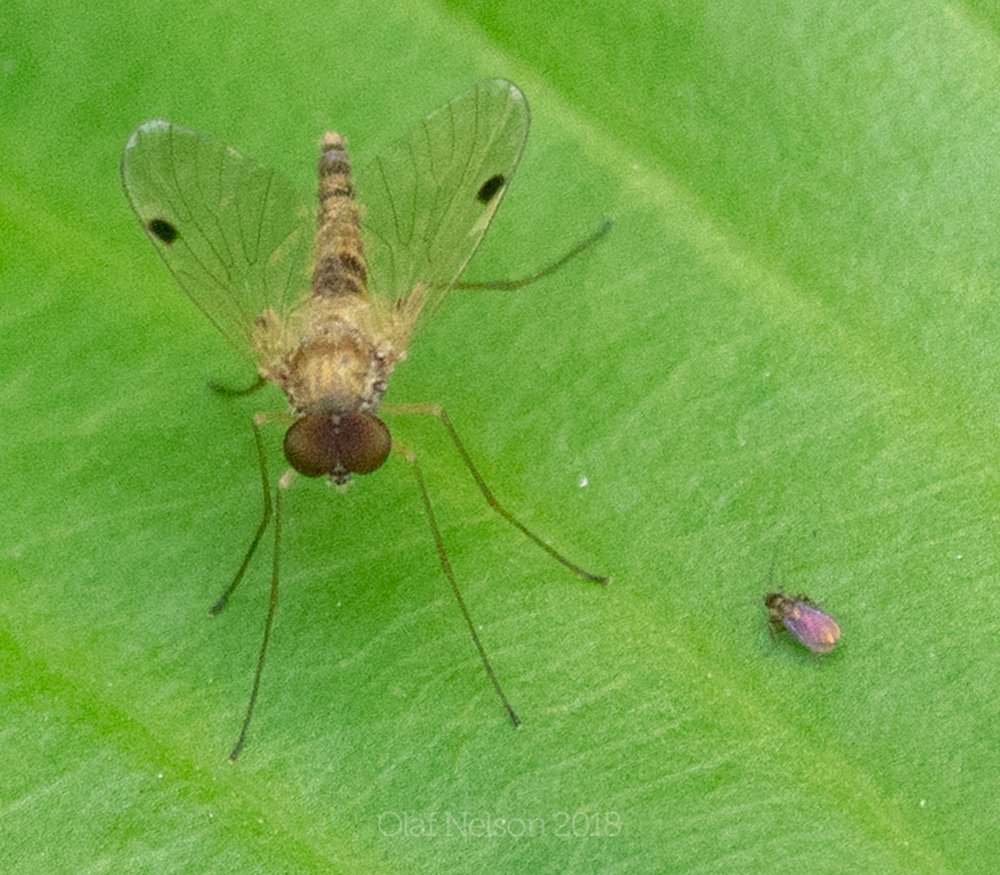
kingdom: Animalia
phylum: Arthropoda
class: Insecta
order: Diptera
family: Rhagionidae
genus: Chrysopilus
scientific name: Chrysopilus modestus
